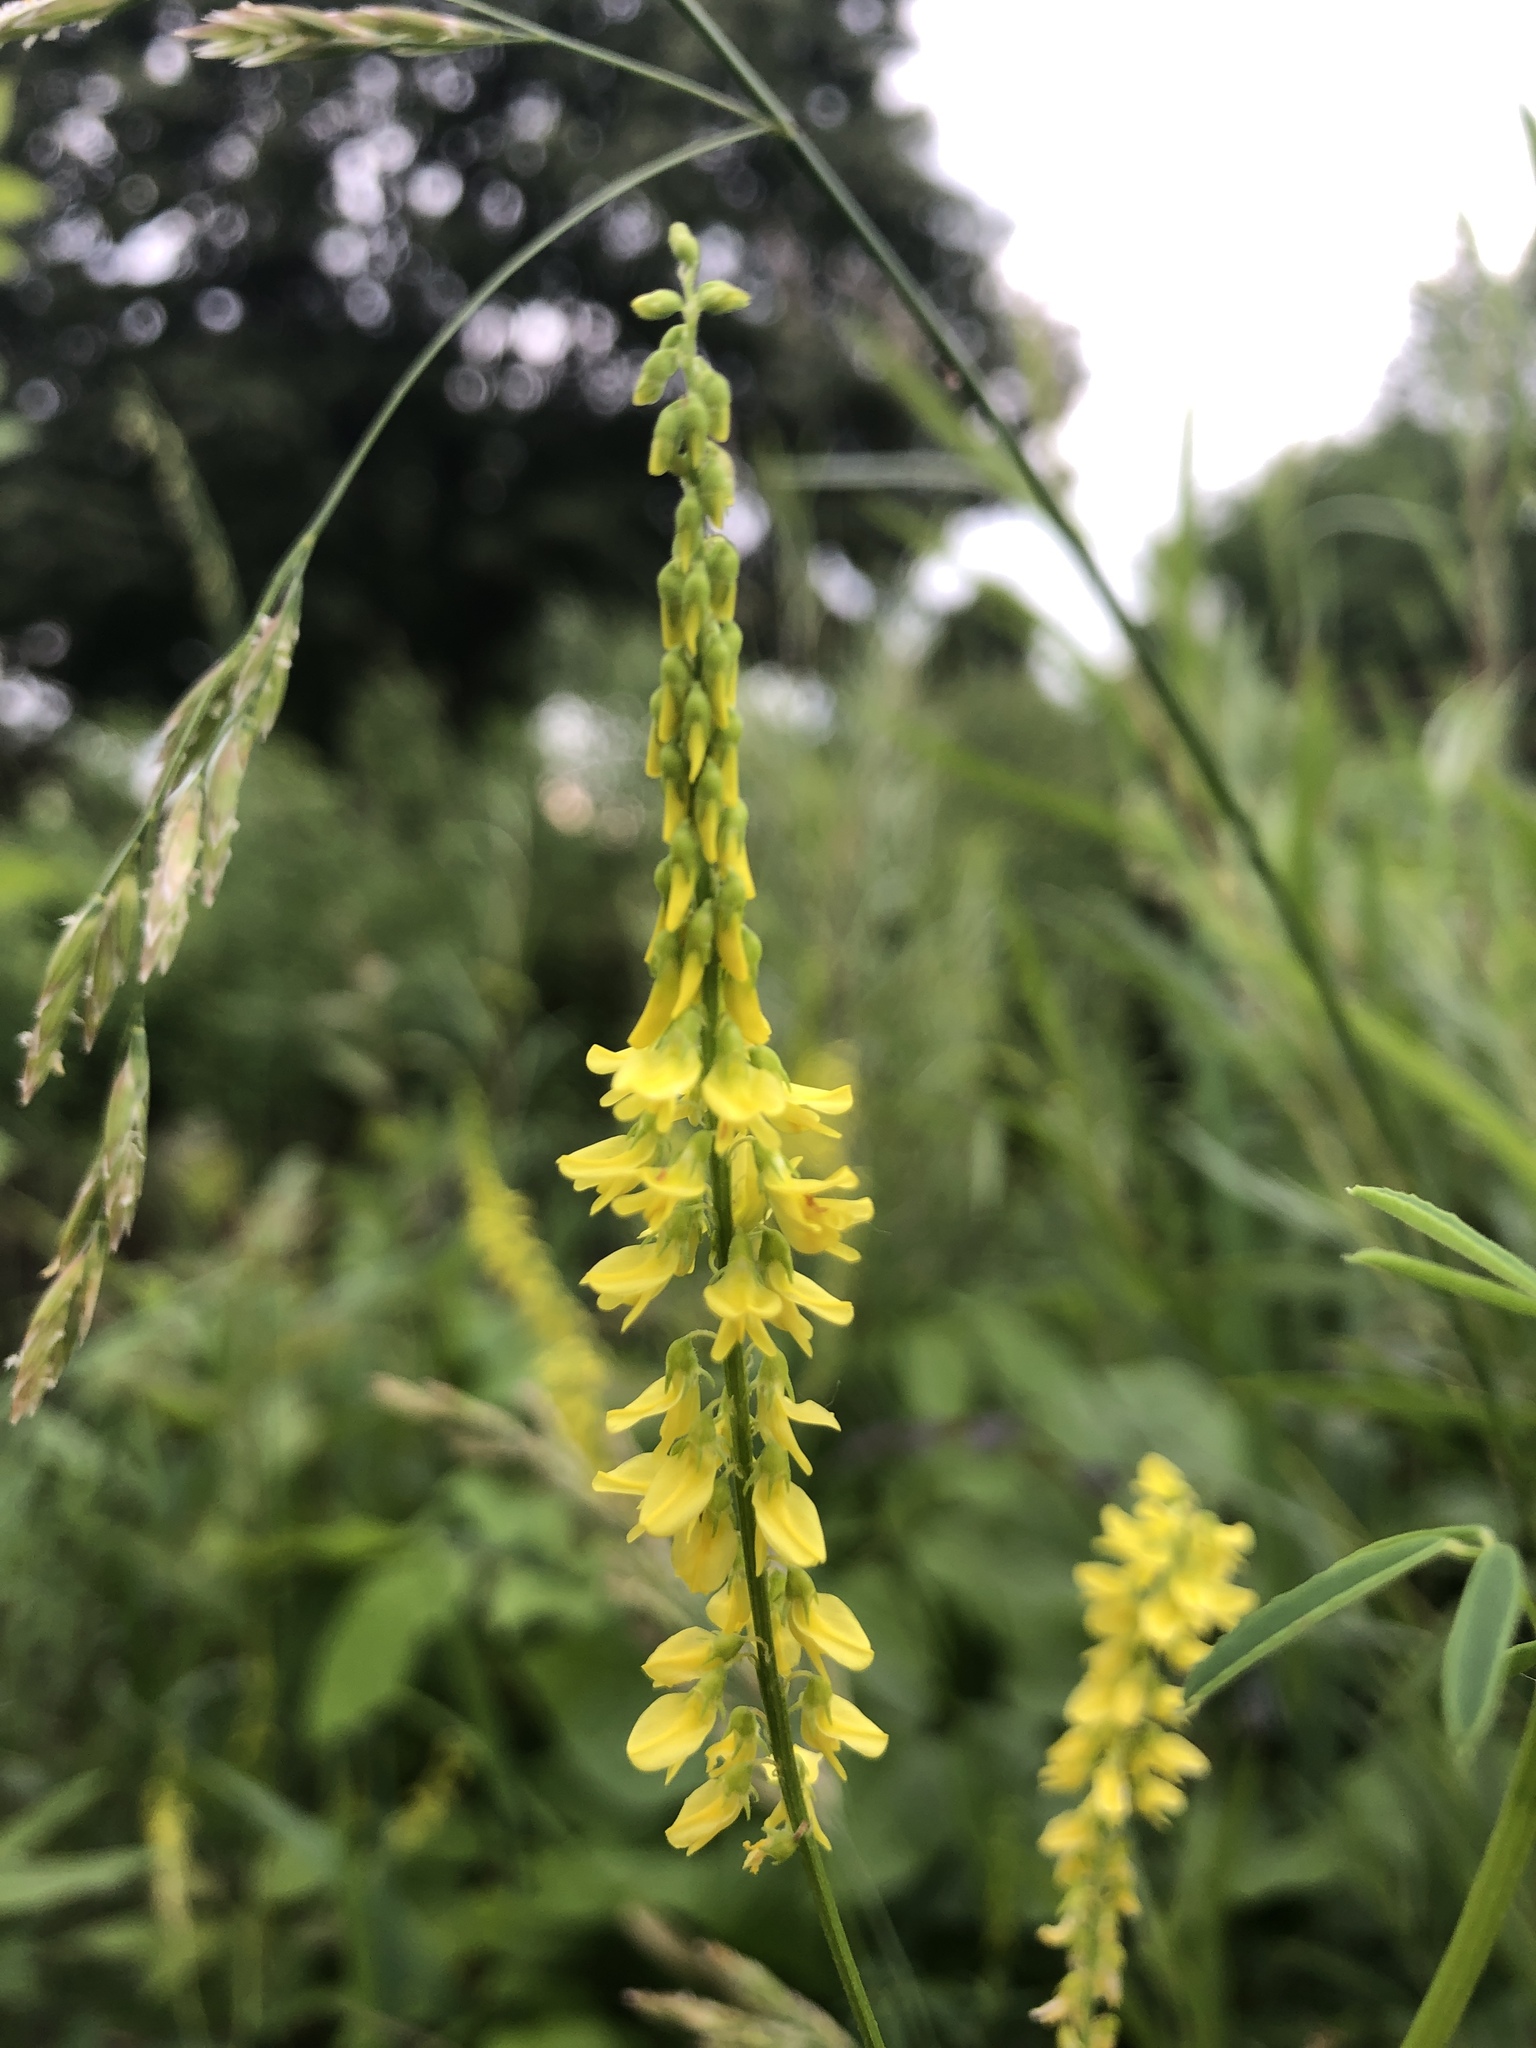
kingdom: Plantae
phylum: Tracheophyta
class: Magnoliopsida
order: Fabales
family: Fabaceae
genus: Melilotus
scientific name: Melilotus officinalis
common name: Sweetclover
